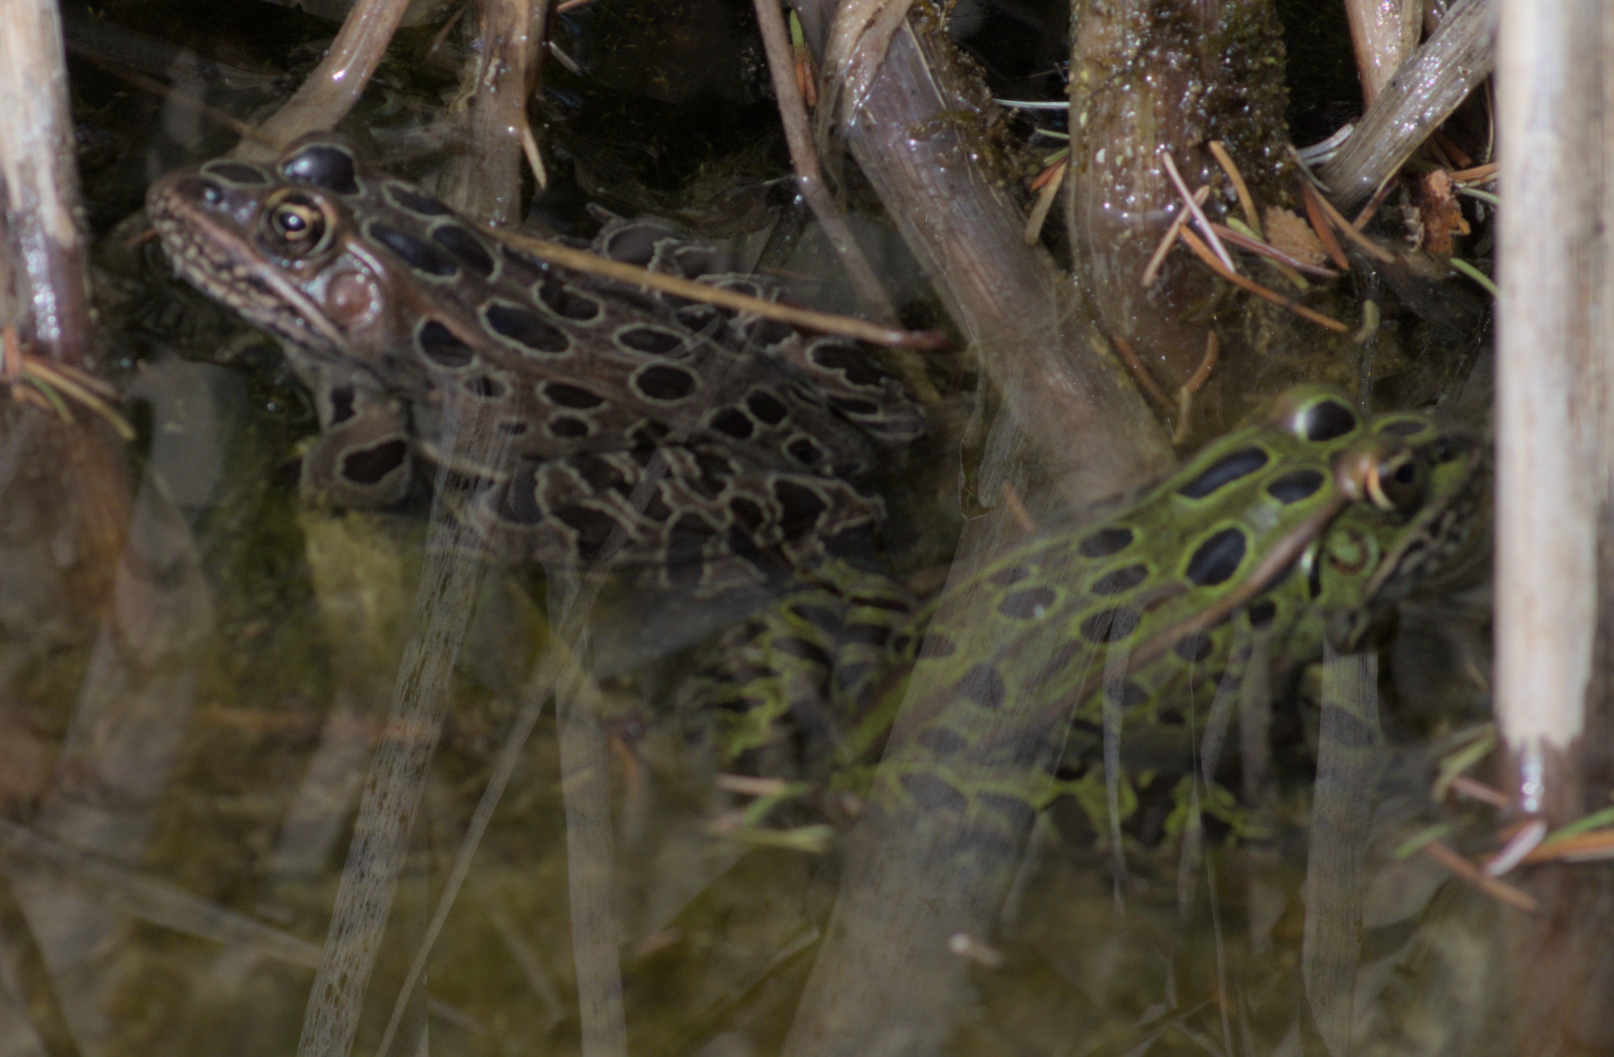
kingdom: Animalia
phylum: Chordata
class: Amphibia
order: Anura
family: Ranidae
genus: Lithobates
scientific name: Lithobates pipiens
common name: Northern leopard frog
